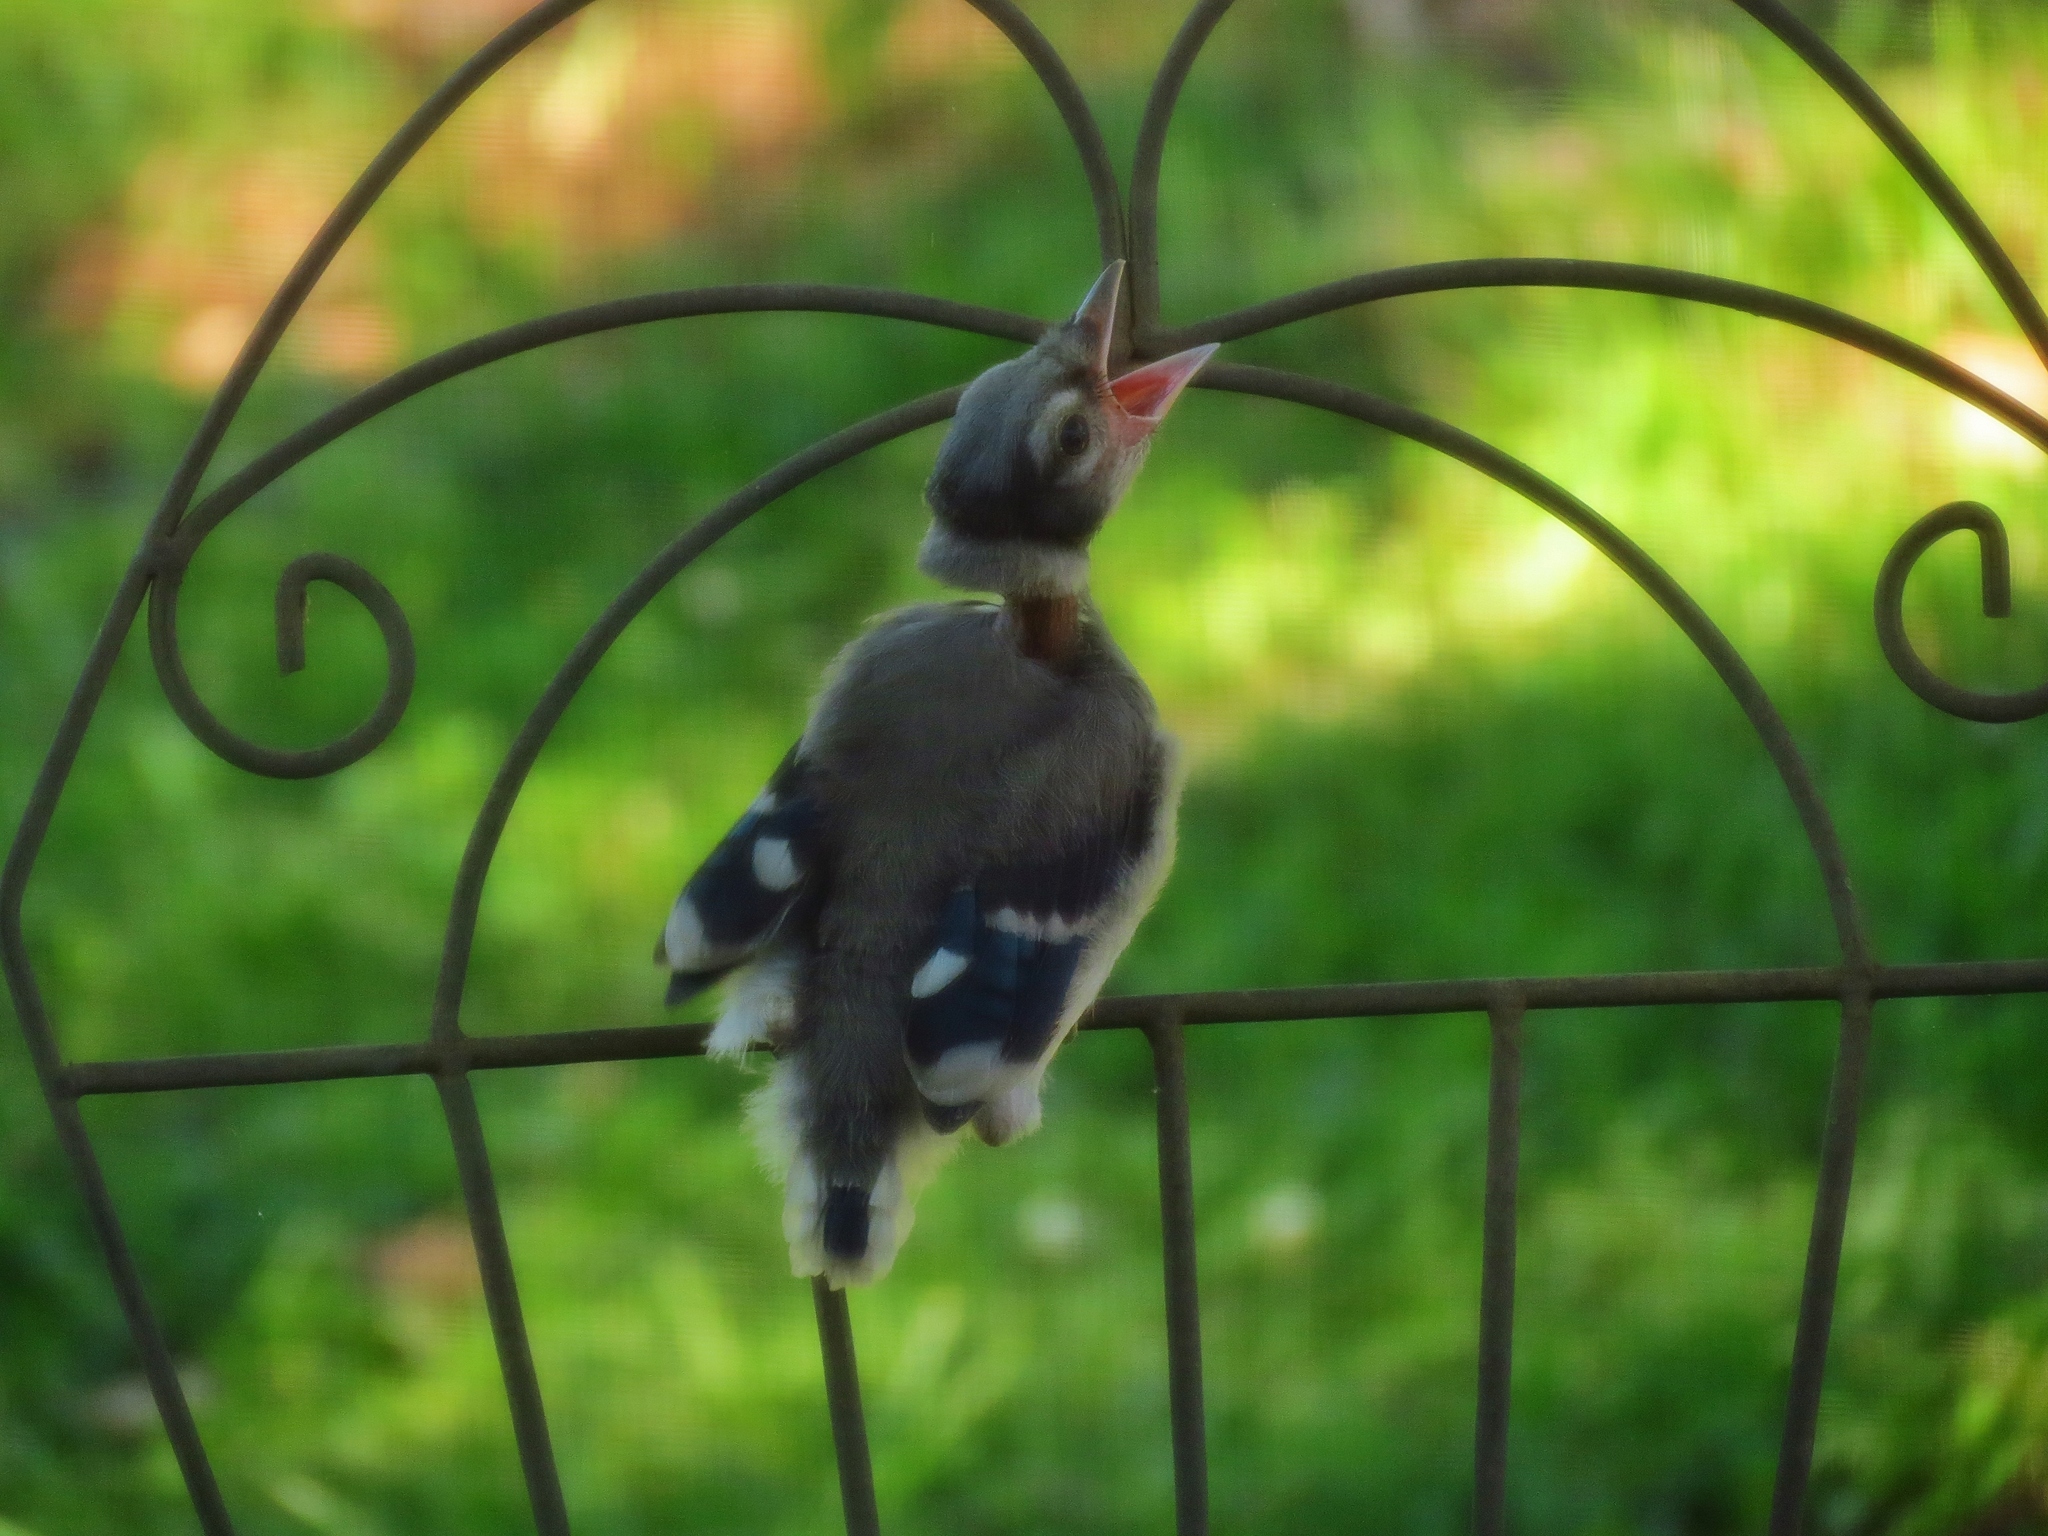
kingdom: Animalia
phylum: Chordata
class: Aves
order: Passeriformes
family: Corvidae
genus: Cyanocitta
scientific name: Cyanocitta cristata
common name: Blue jay
